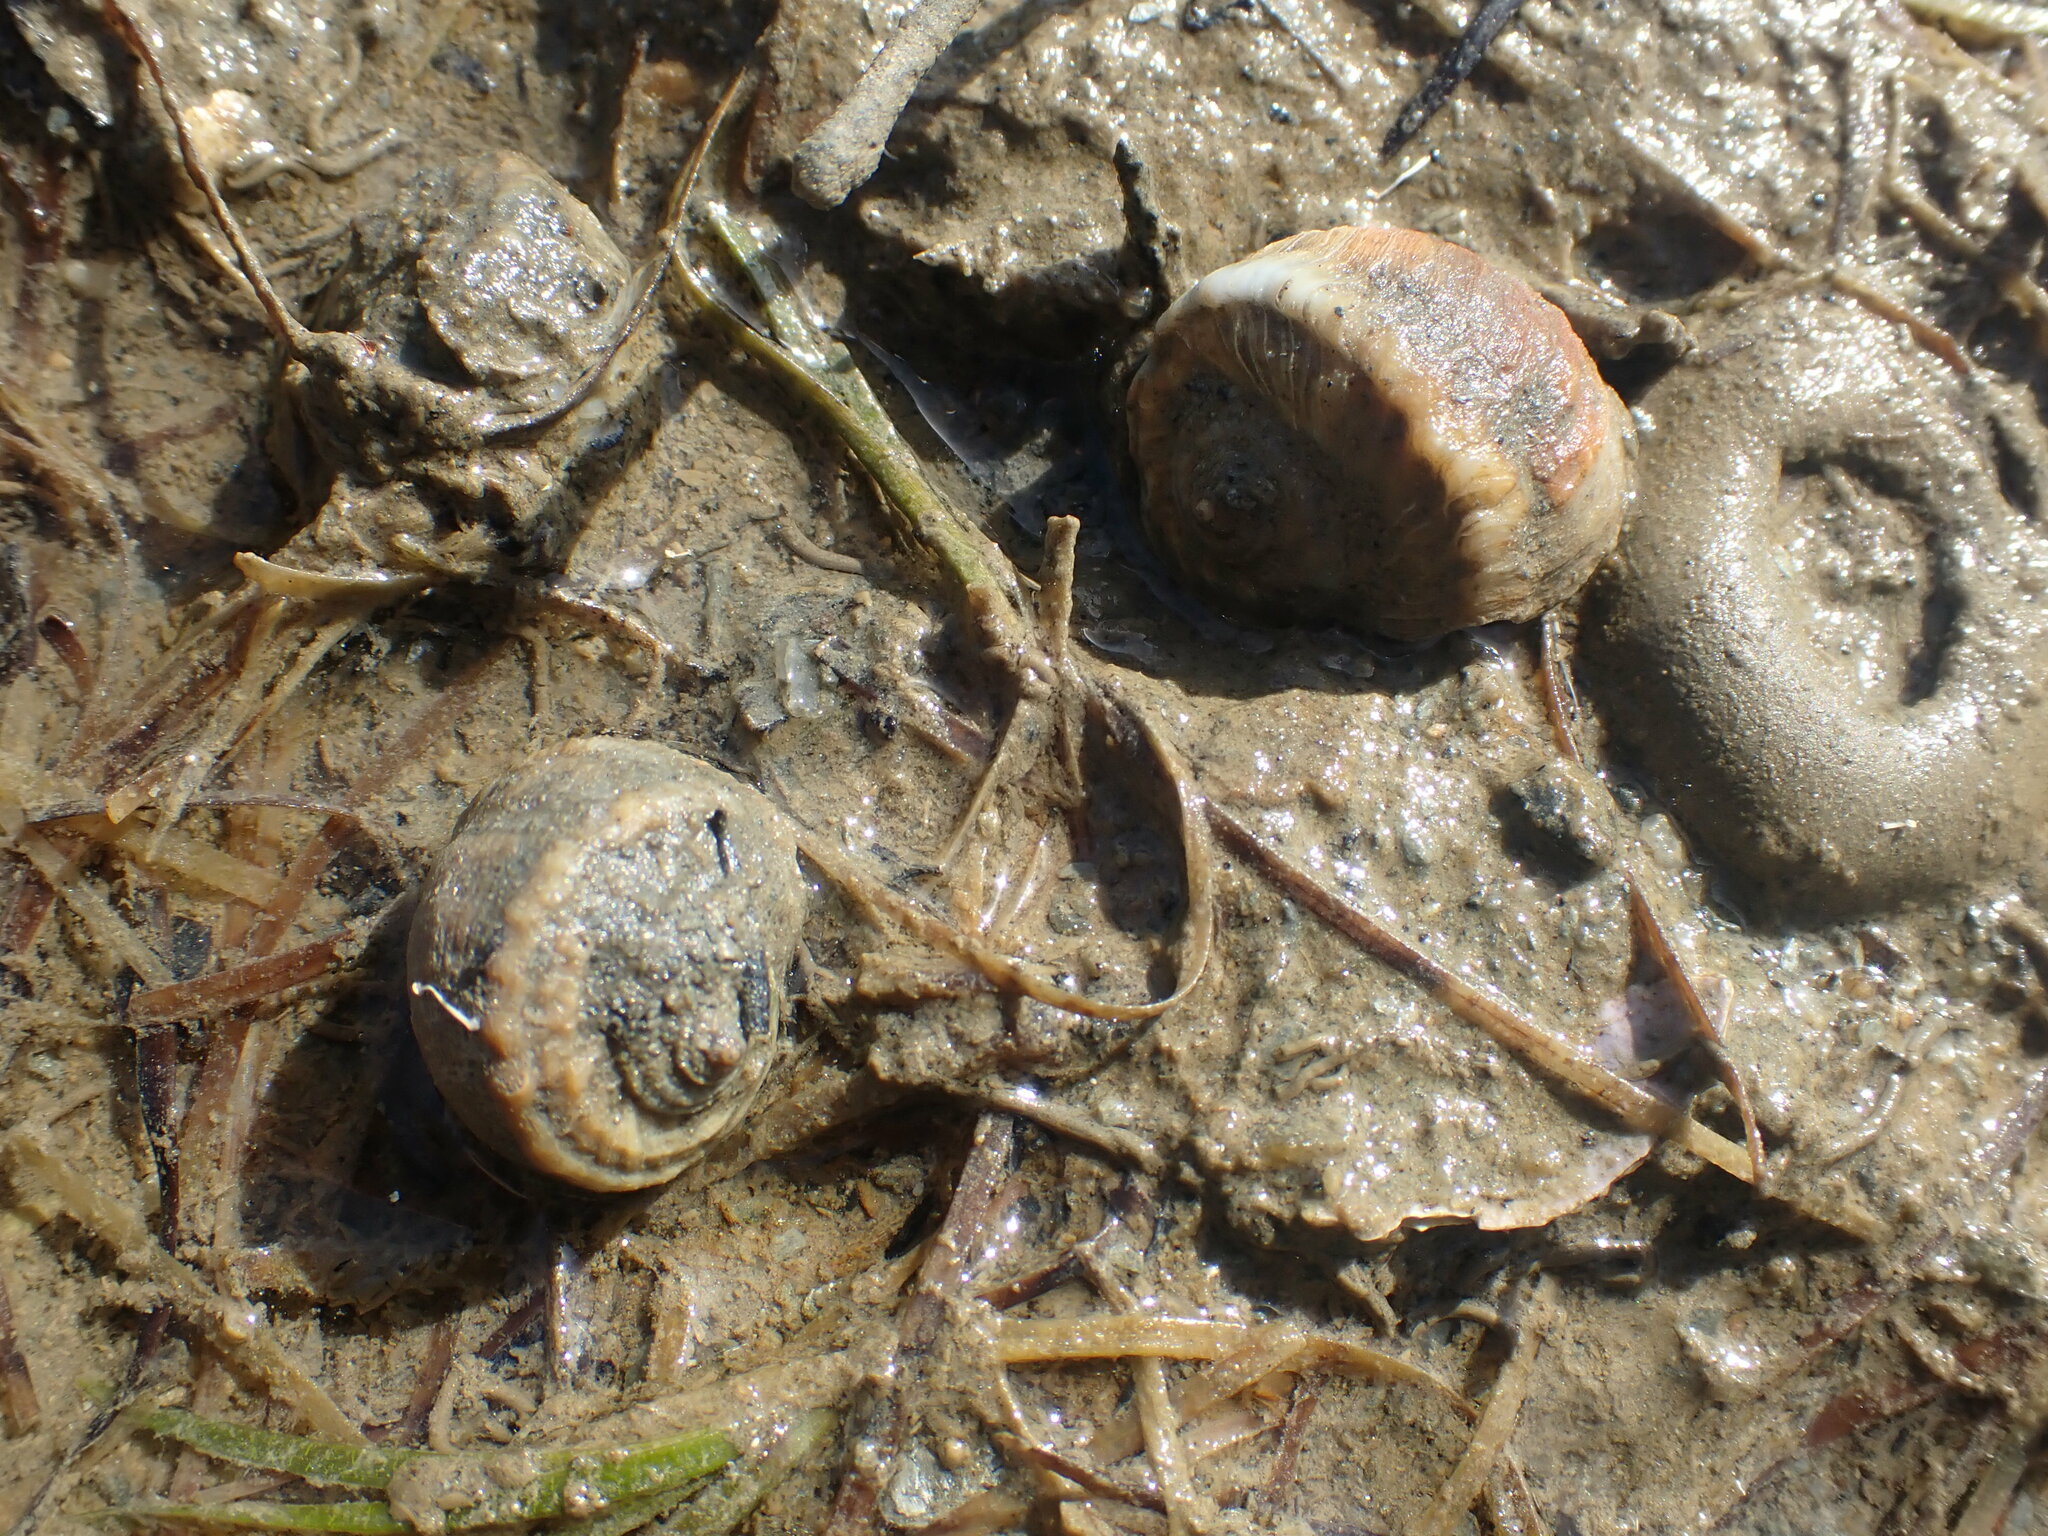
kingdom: Animalia
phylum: Mollusca
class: Gastropoda
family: Amphibolidae
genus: Amphibola
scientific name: Amphibola crenata
